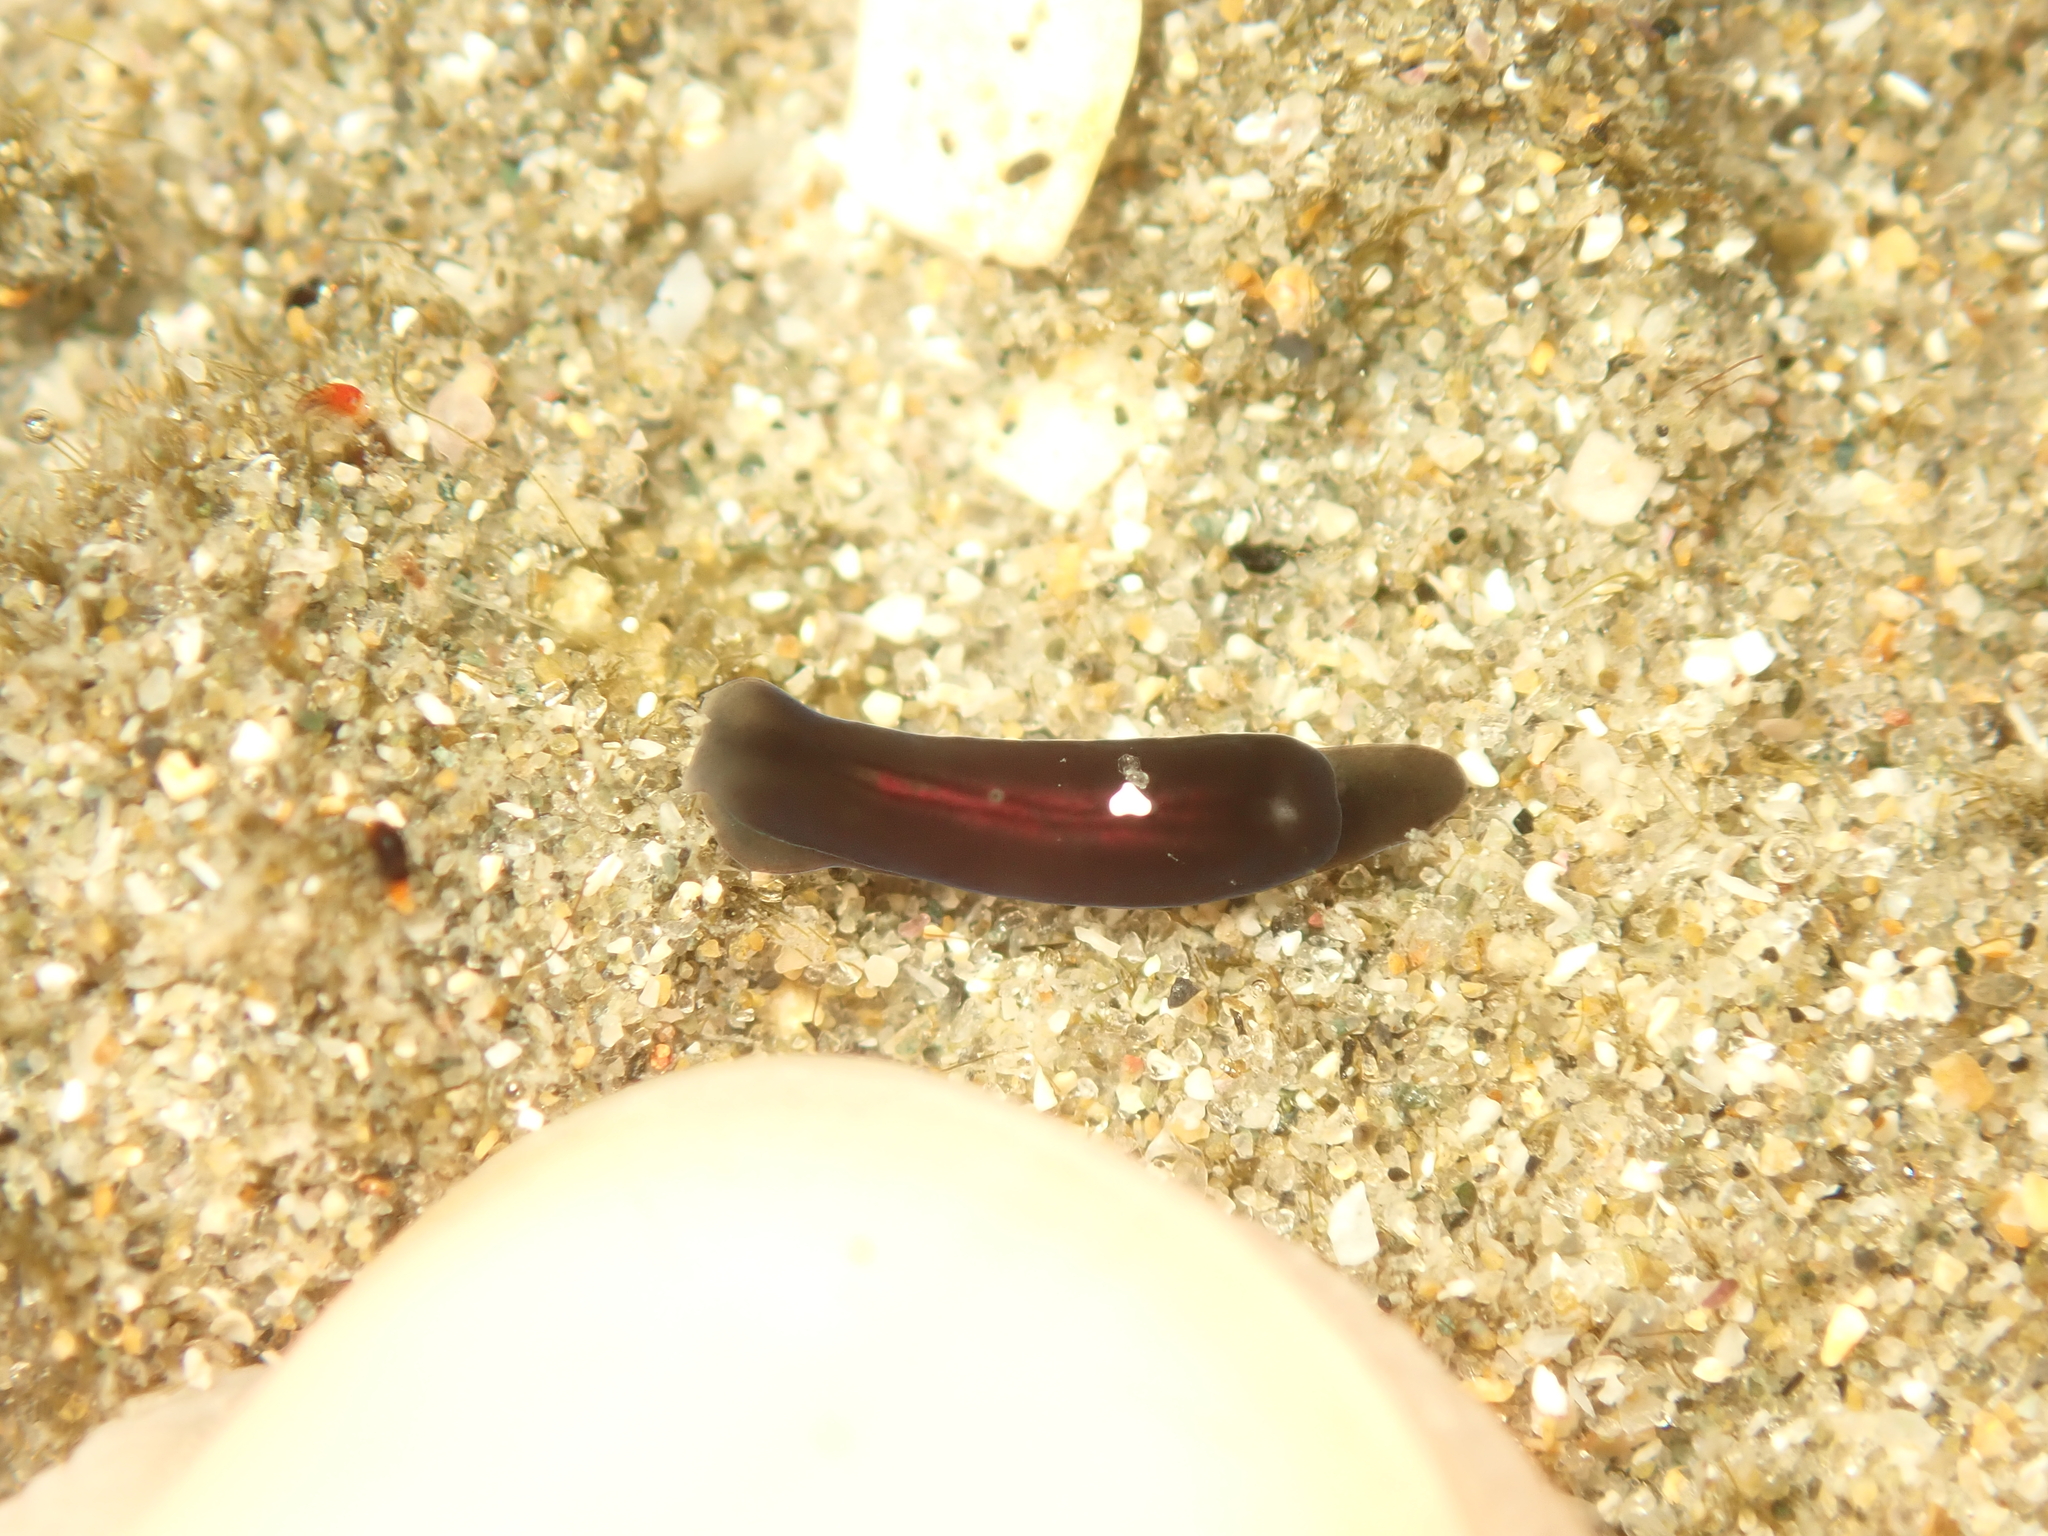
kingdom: Animalia
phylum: Mollusca
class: Gastropoda
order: Runcinida
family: Runcinidae
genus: Runcina
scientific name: Runcina katipoides
